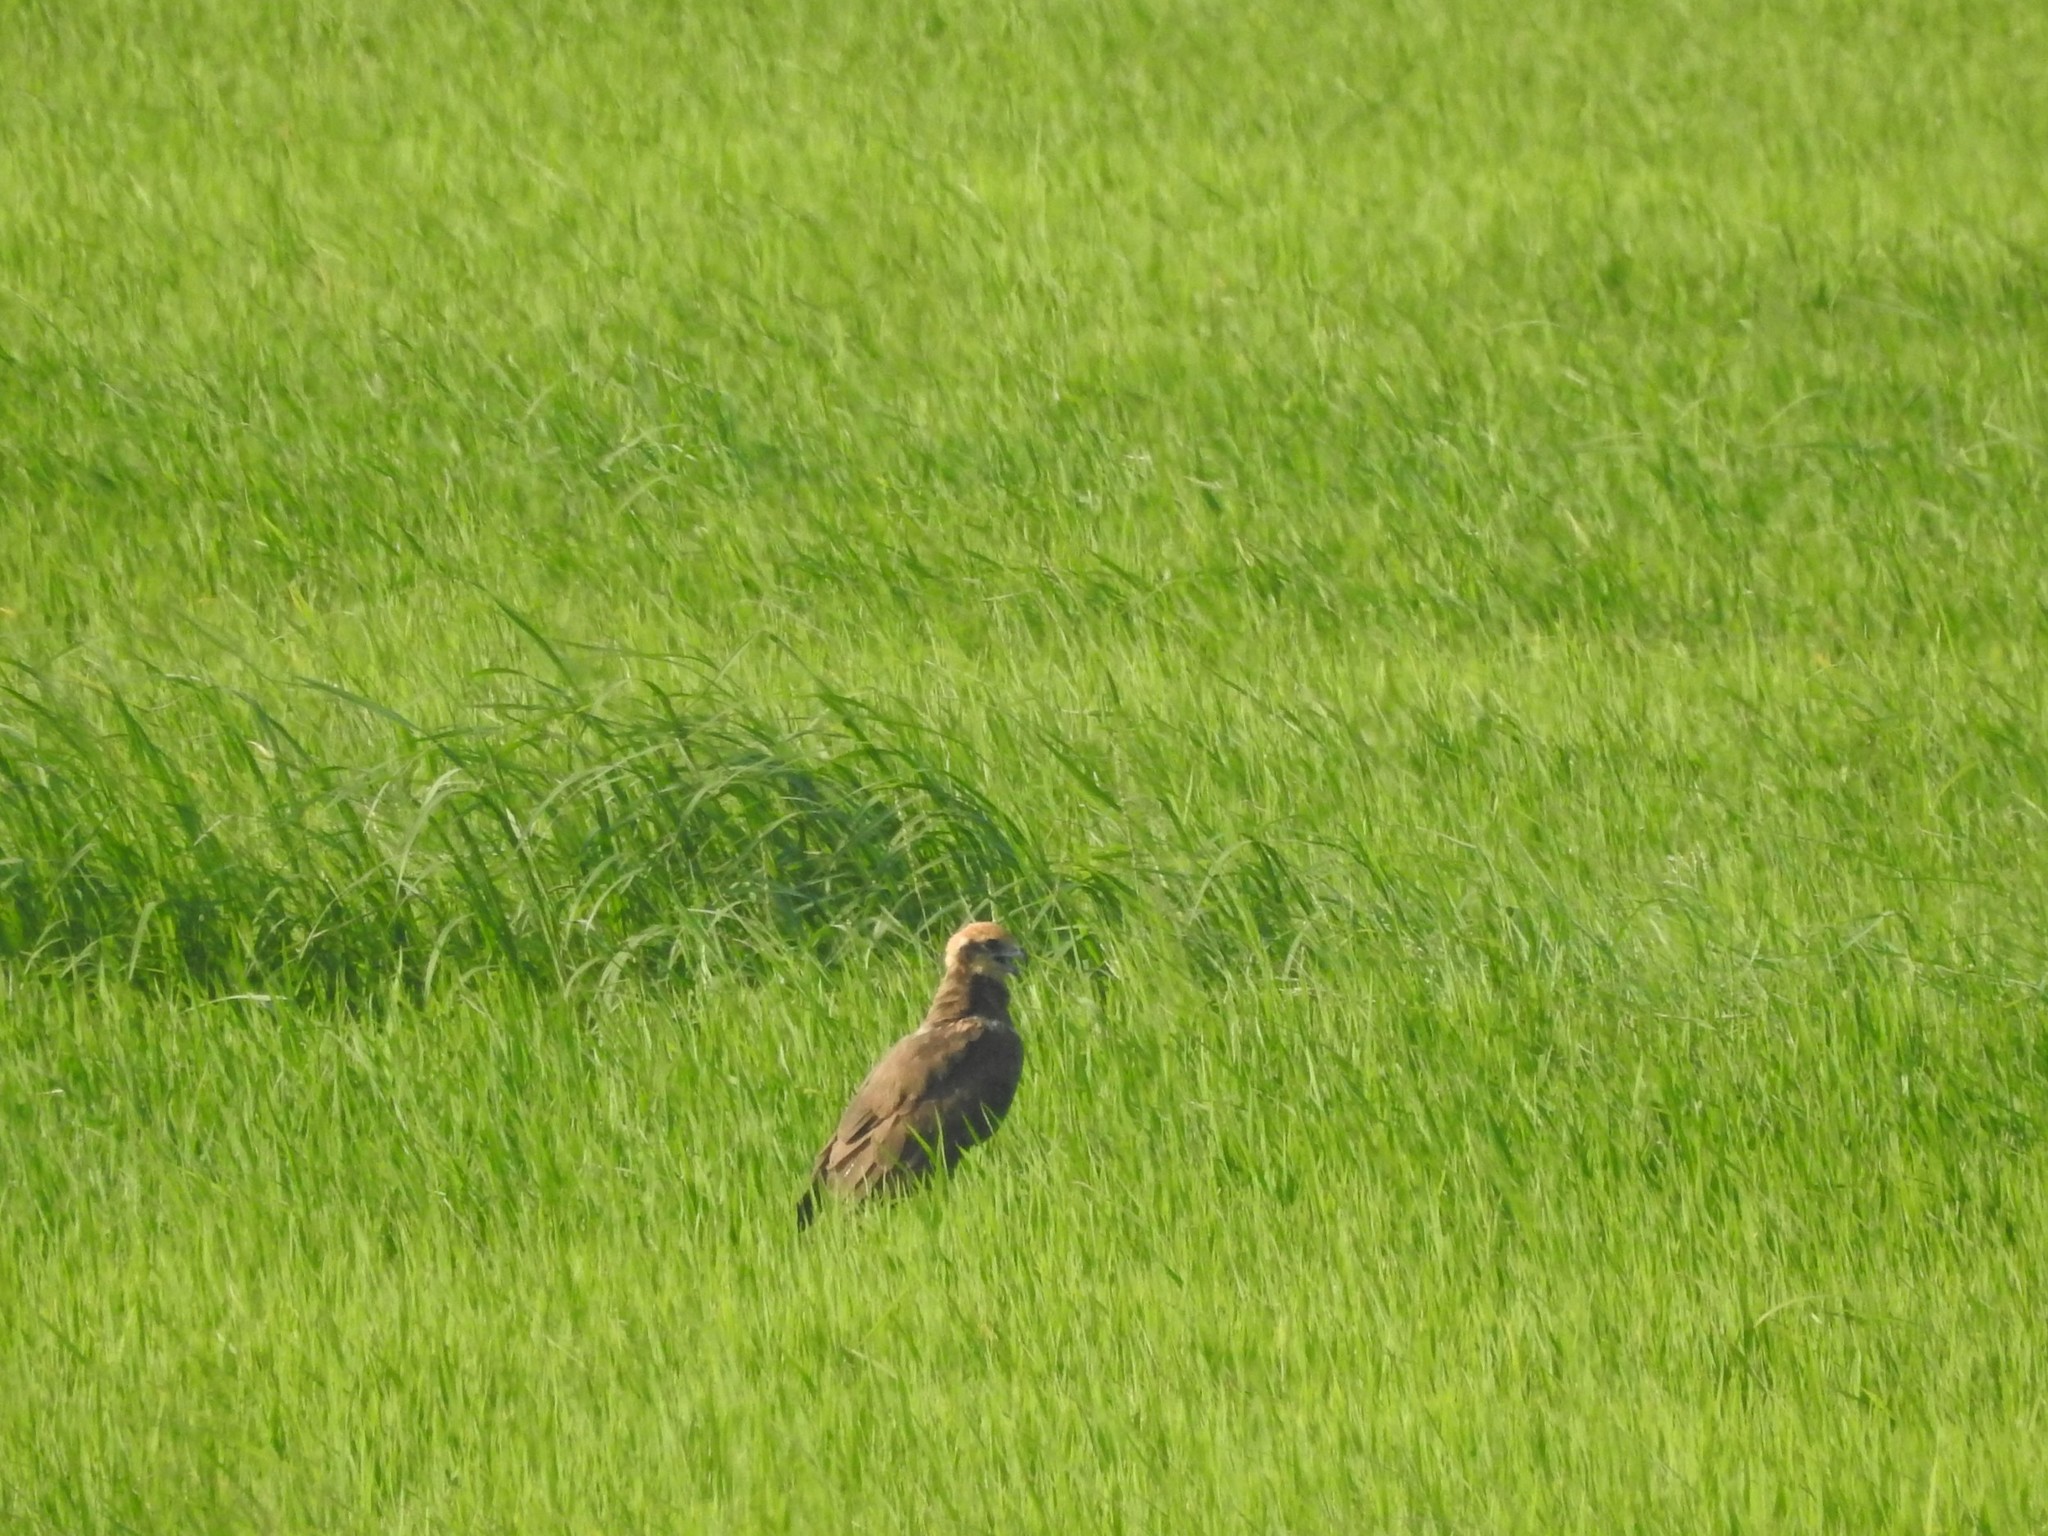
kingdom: Animalia
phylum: Chordata
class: Aves
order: Accipitriformes
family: Accipitridae
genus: Circus
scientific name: Circus aeruginosus
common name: Western marsh harrier
